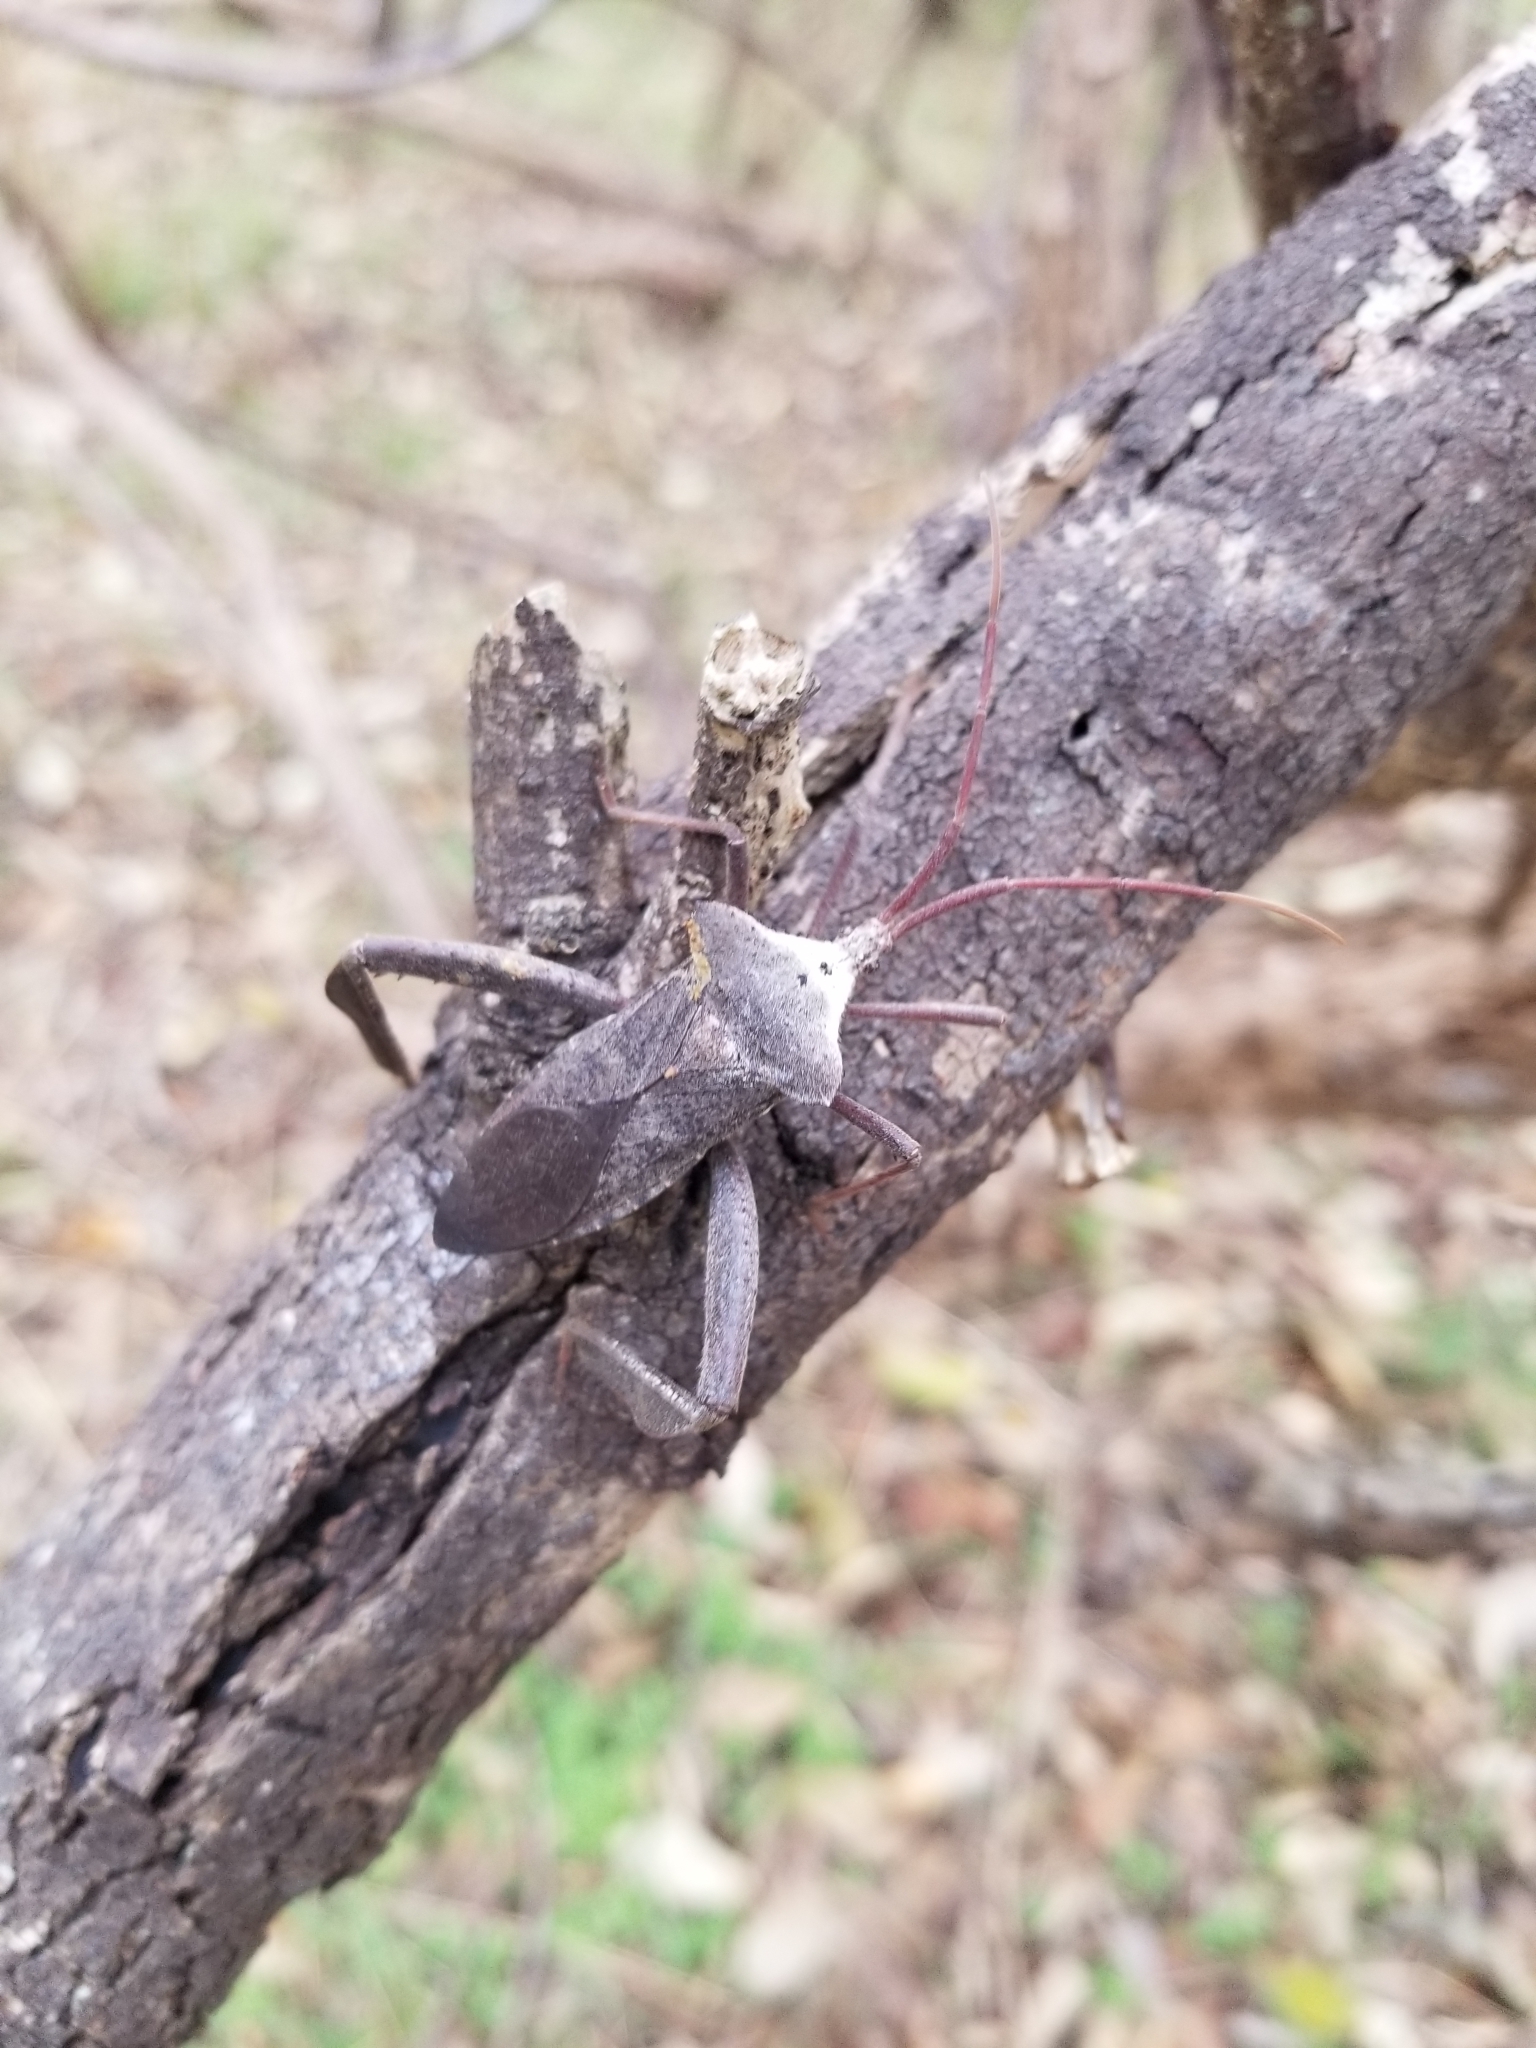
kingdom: Animalia
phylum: Arthropoda
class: Insecta
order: Hemiptera
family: Coreidae
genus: Acanthocephala
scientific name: Acanthocephala declivis
